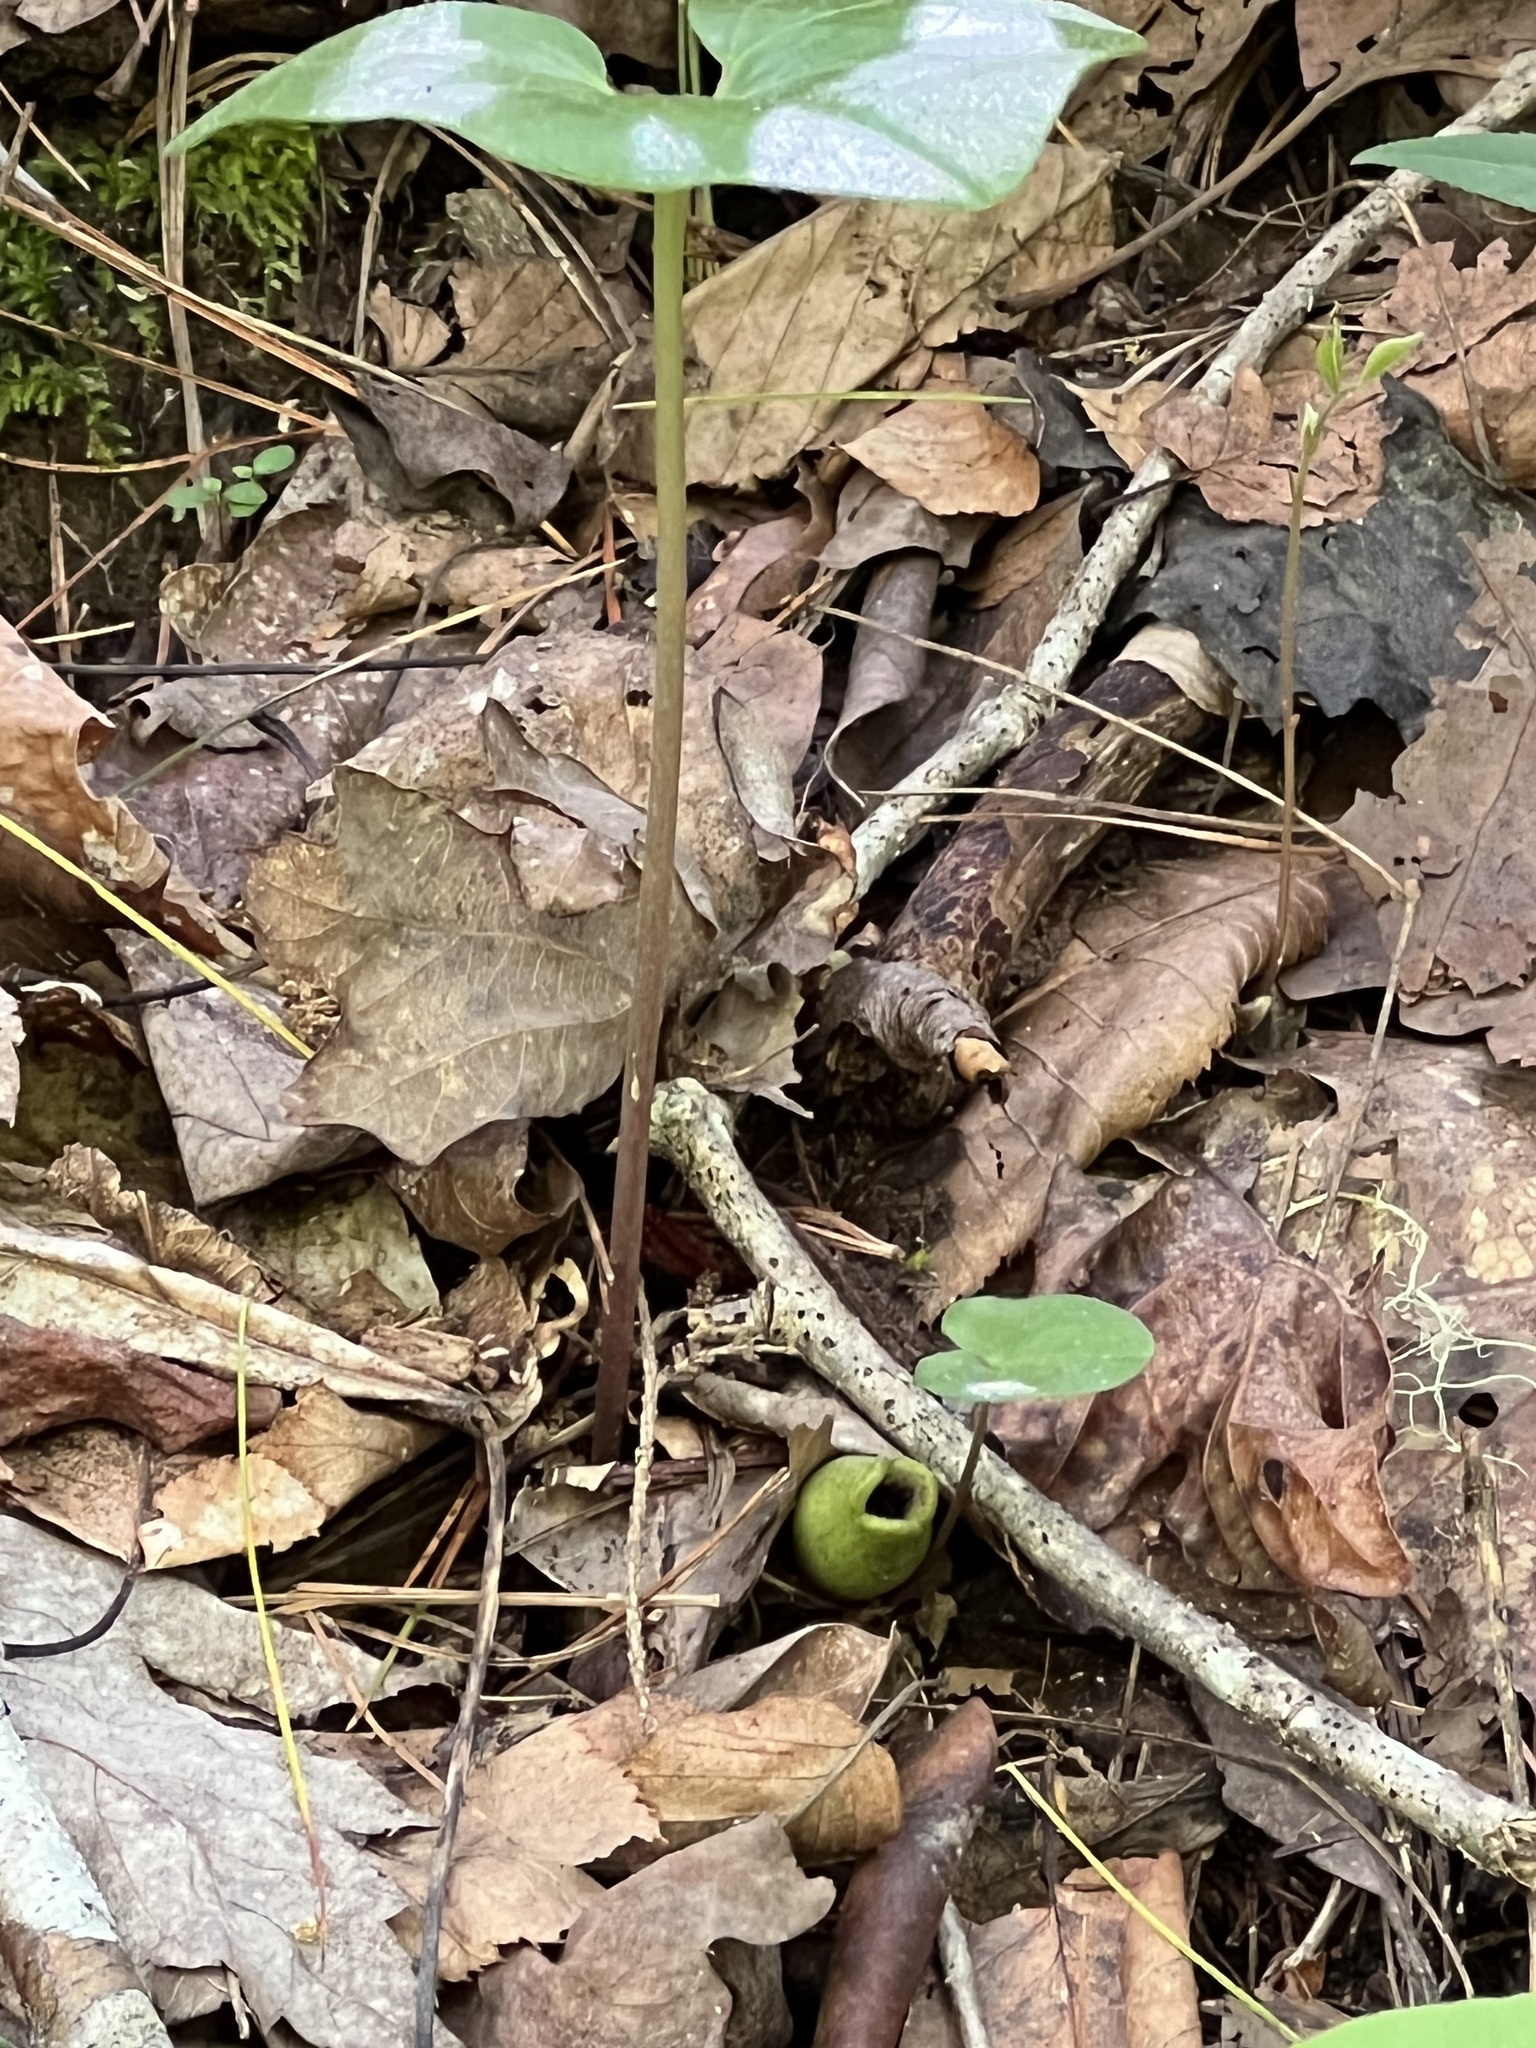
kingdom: Plantae
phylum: Tracheophyta
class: Magnoliopsida
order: Piperales
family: Aristolochiaceae
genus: Hexastylis
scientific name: Hexastylis arifolia
